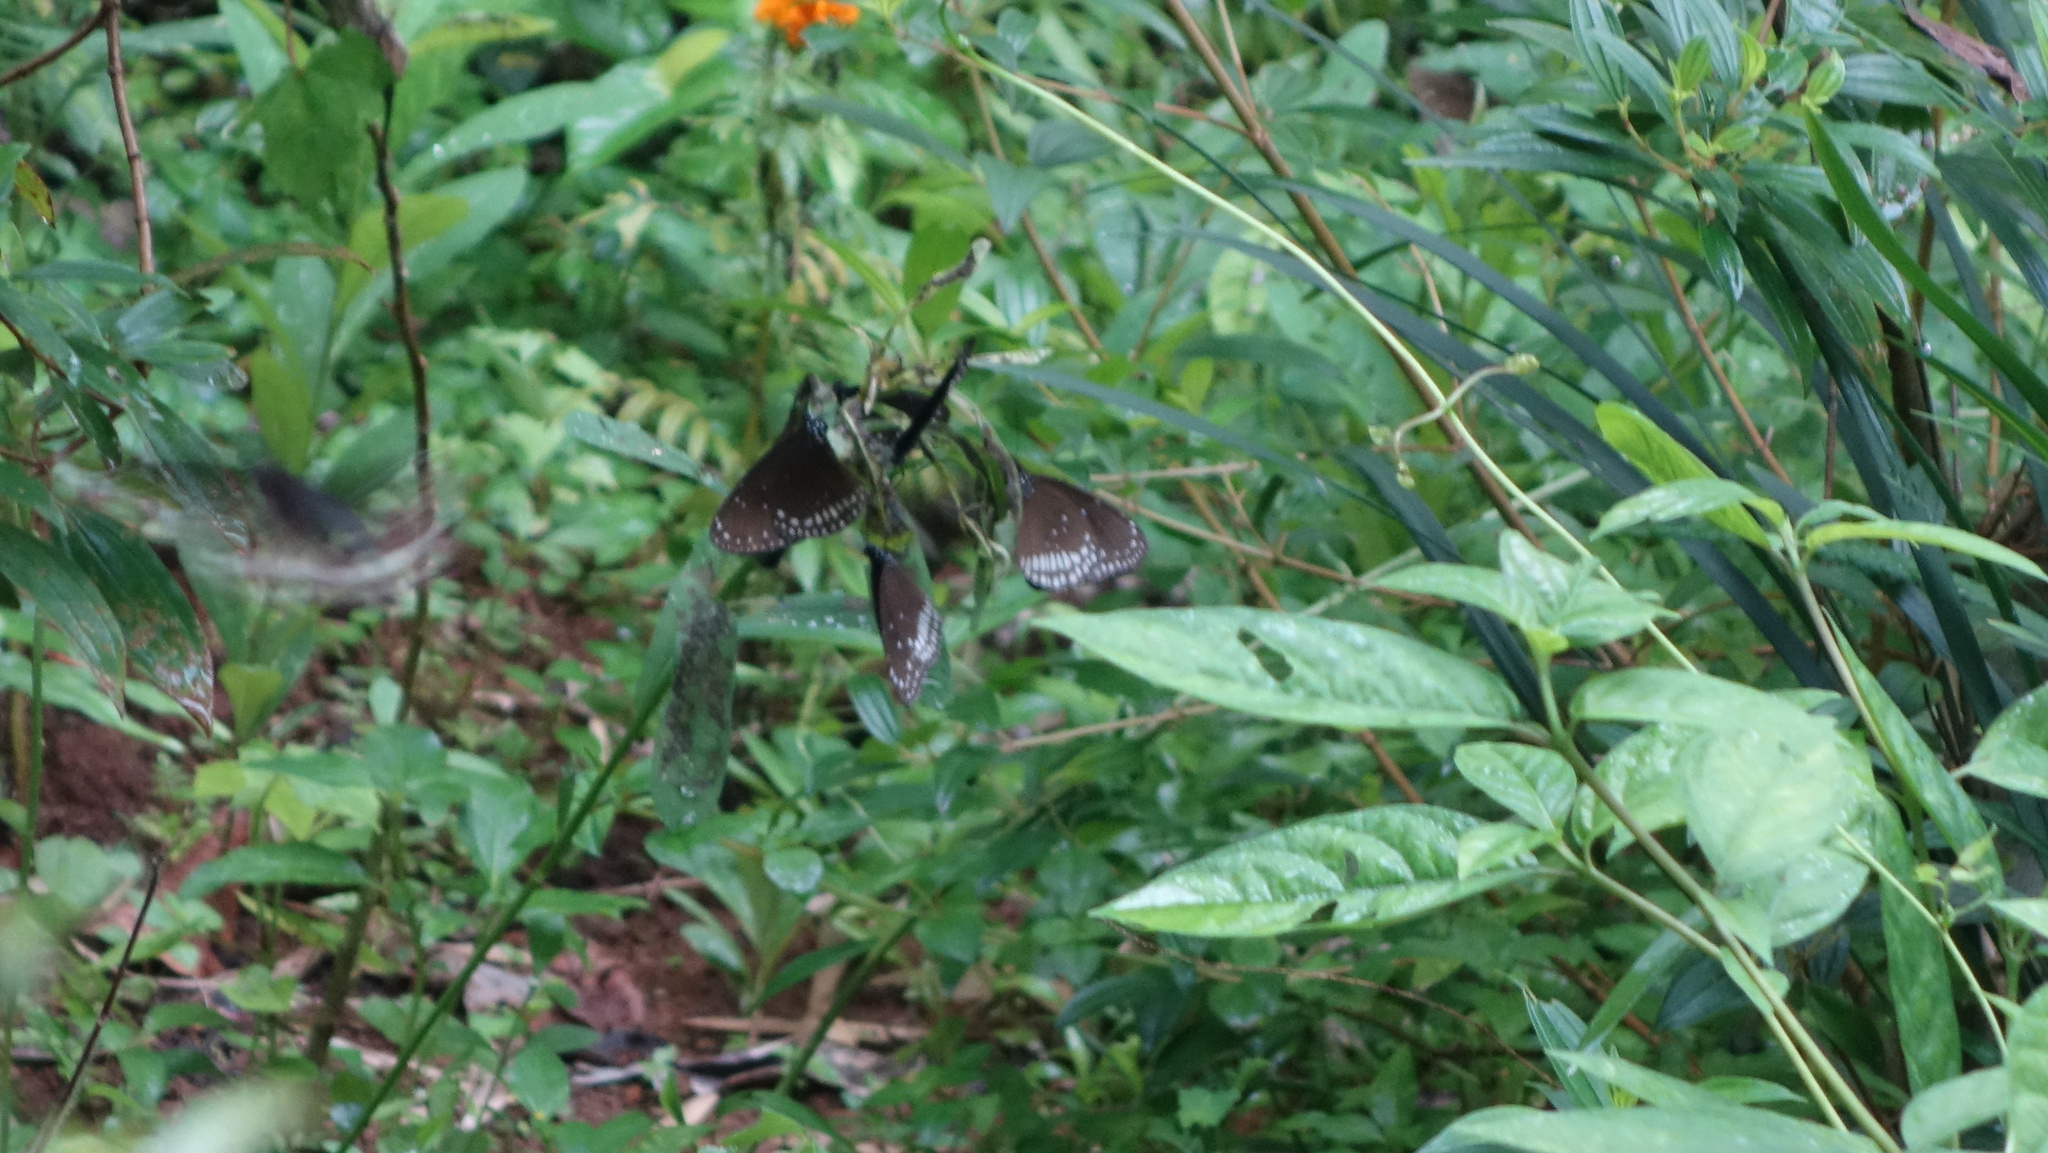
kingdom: Animalia
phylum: Arthropoda
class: Insecta
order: Lepidoptera
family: Nymphalidae
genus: Euploea
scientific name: Euploea core
